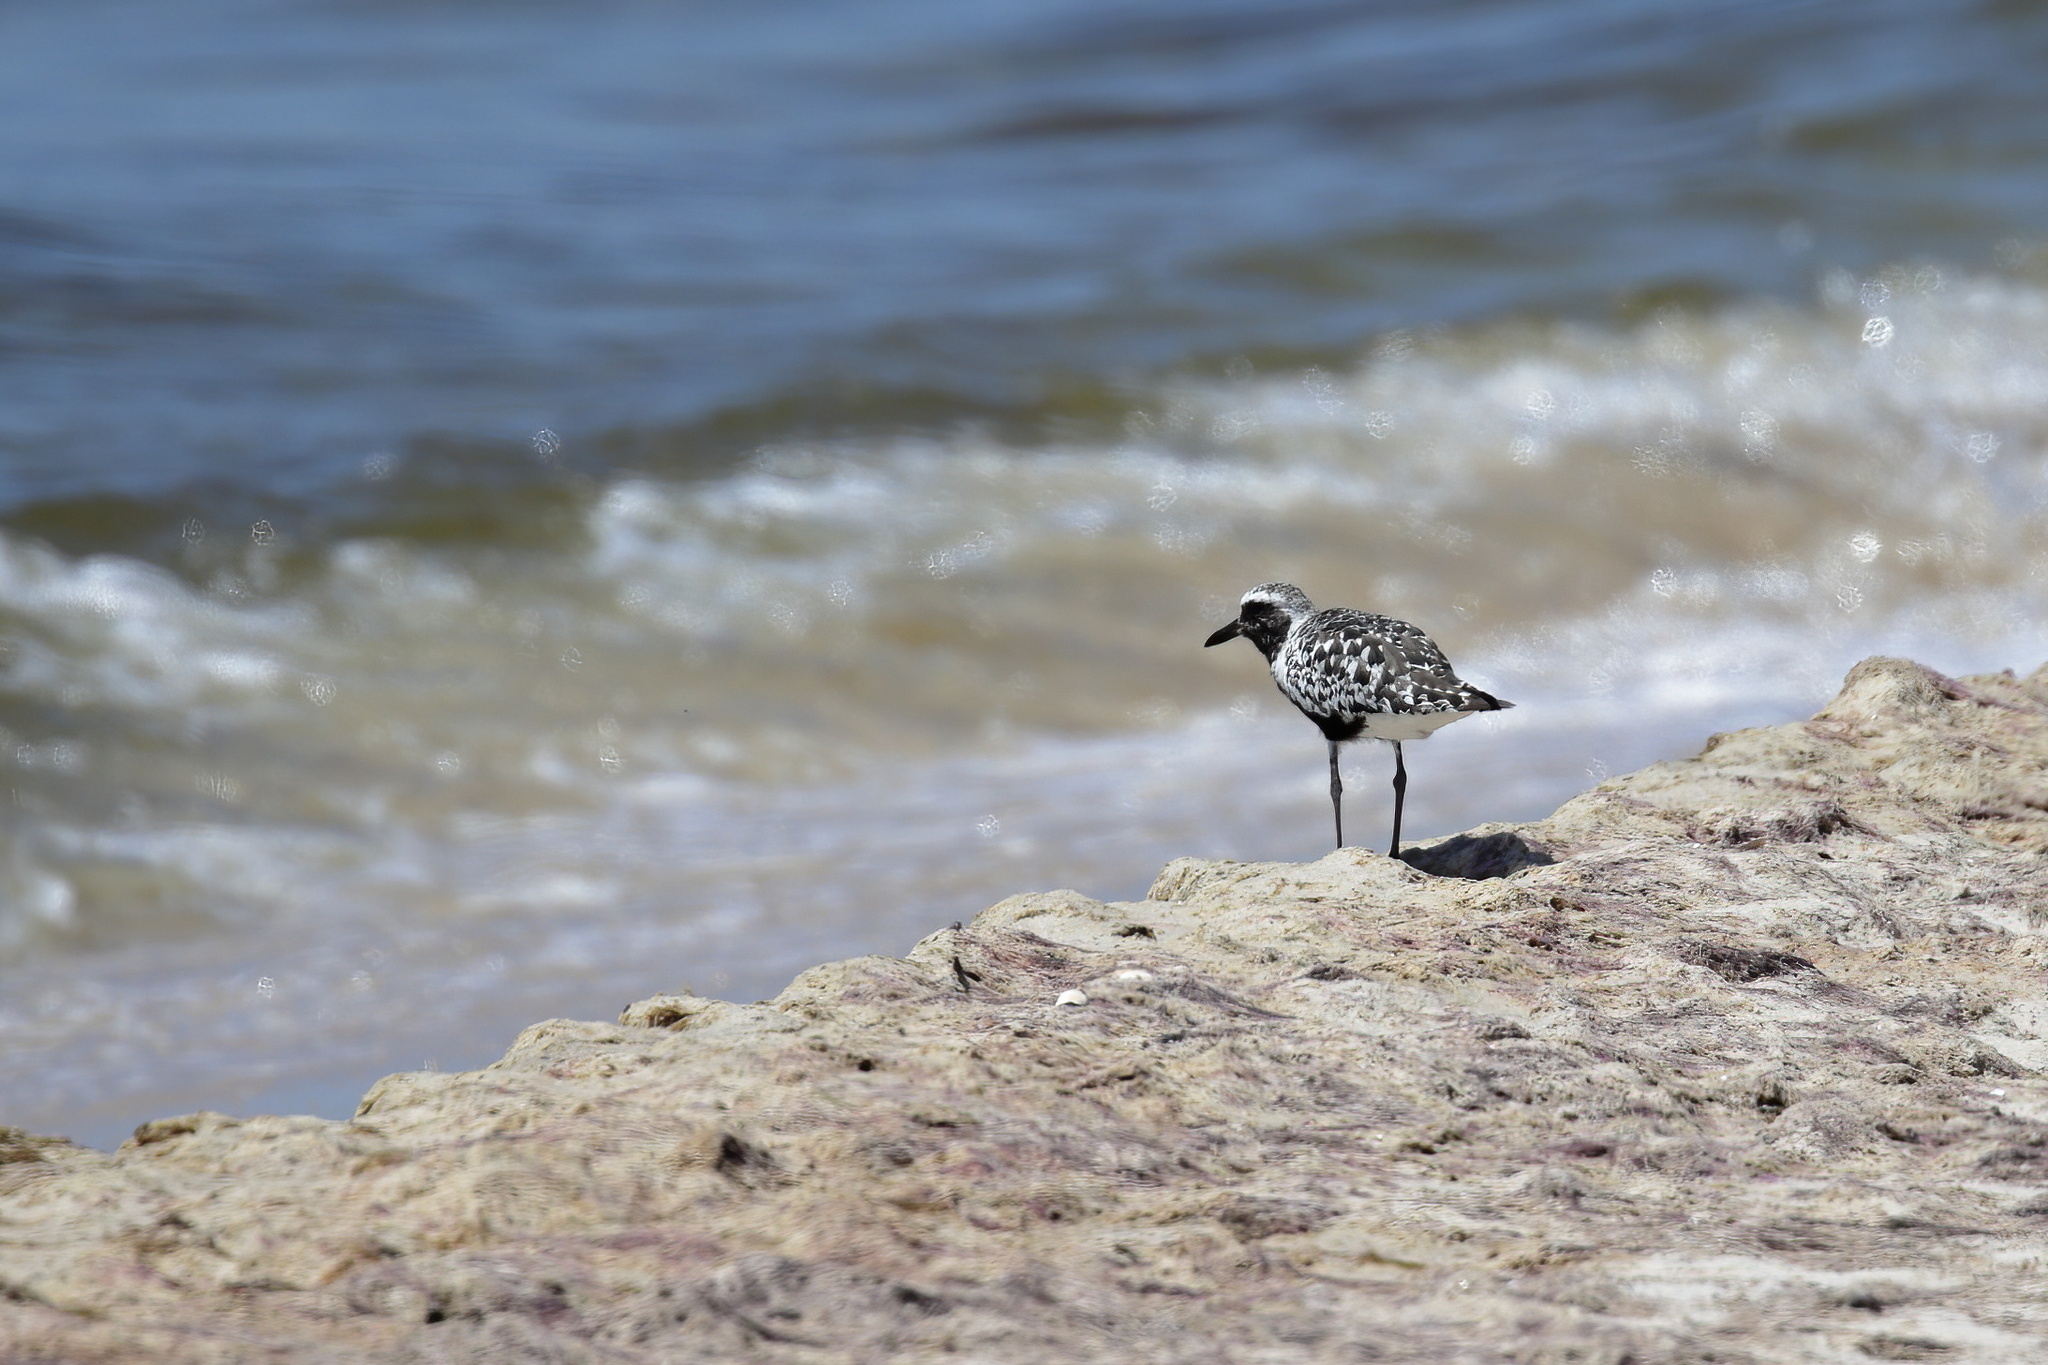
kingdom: Animalia
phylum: Chordata
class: Aves
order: Charadriiformes
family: Charadriidae
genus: Pluvialis
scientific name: Pluvialis squatarola
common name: Grey plover
